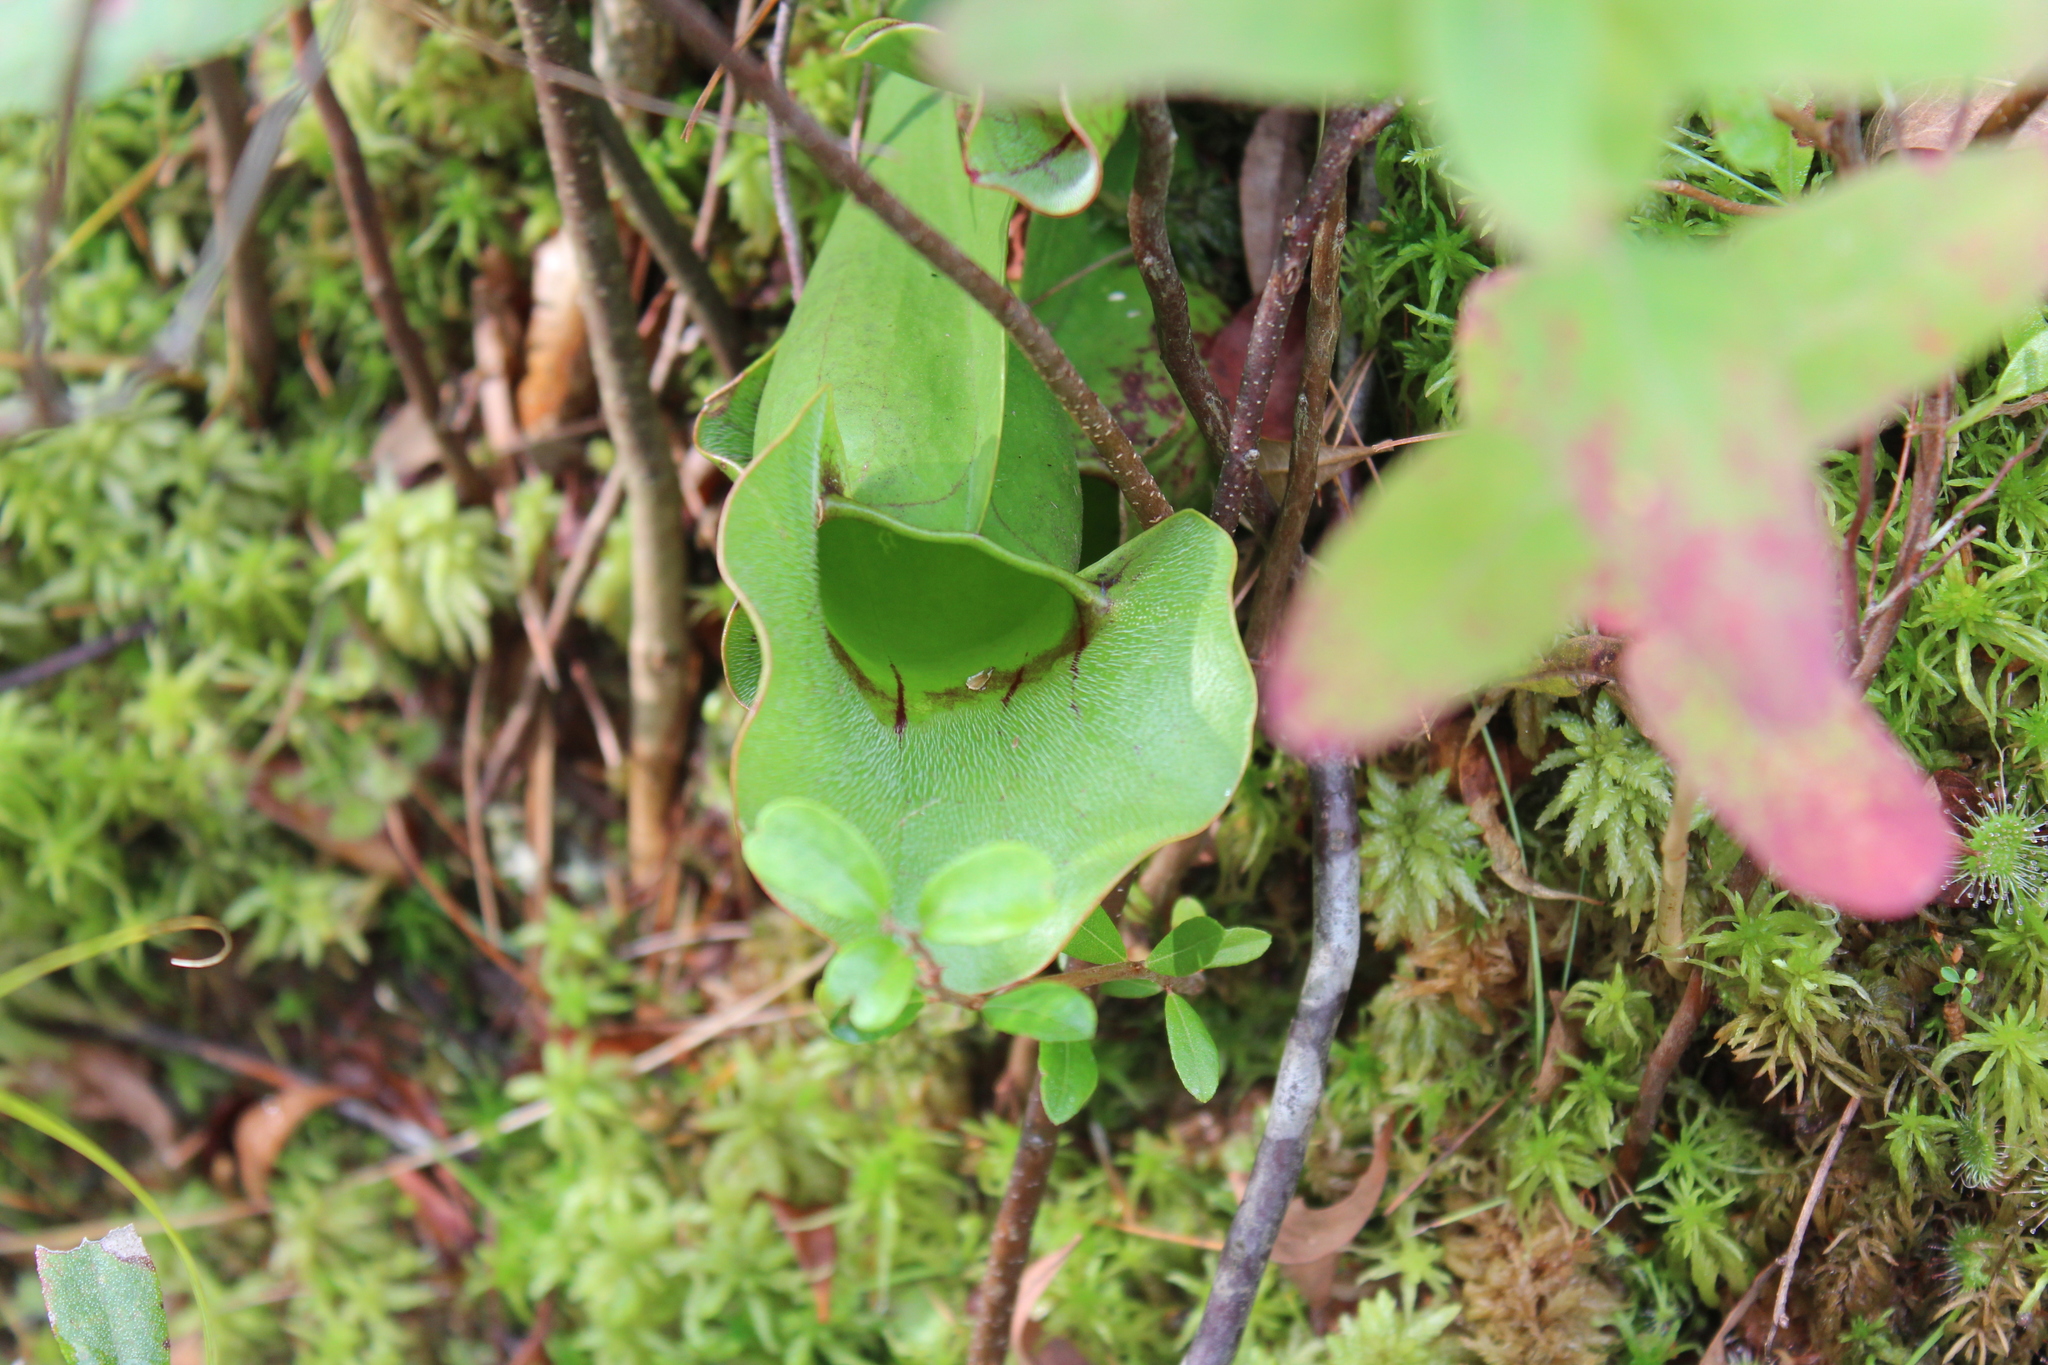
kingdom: Plantae
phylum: Tracheophyta
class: Magnoliopsida
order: Ericales
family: Sarraceniaceae
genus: Sarracenia
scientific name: Sarracenia purpurea
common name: Pitcherplant
